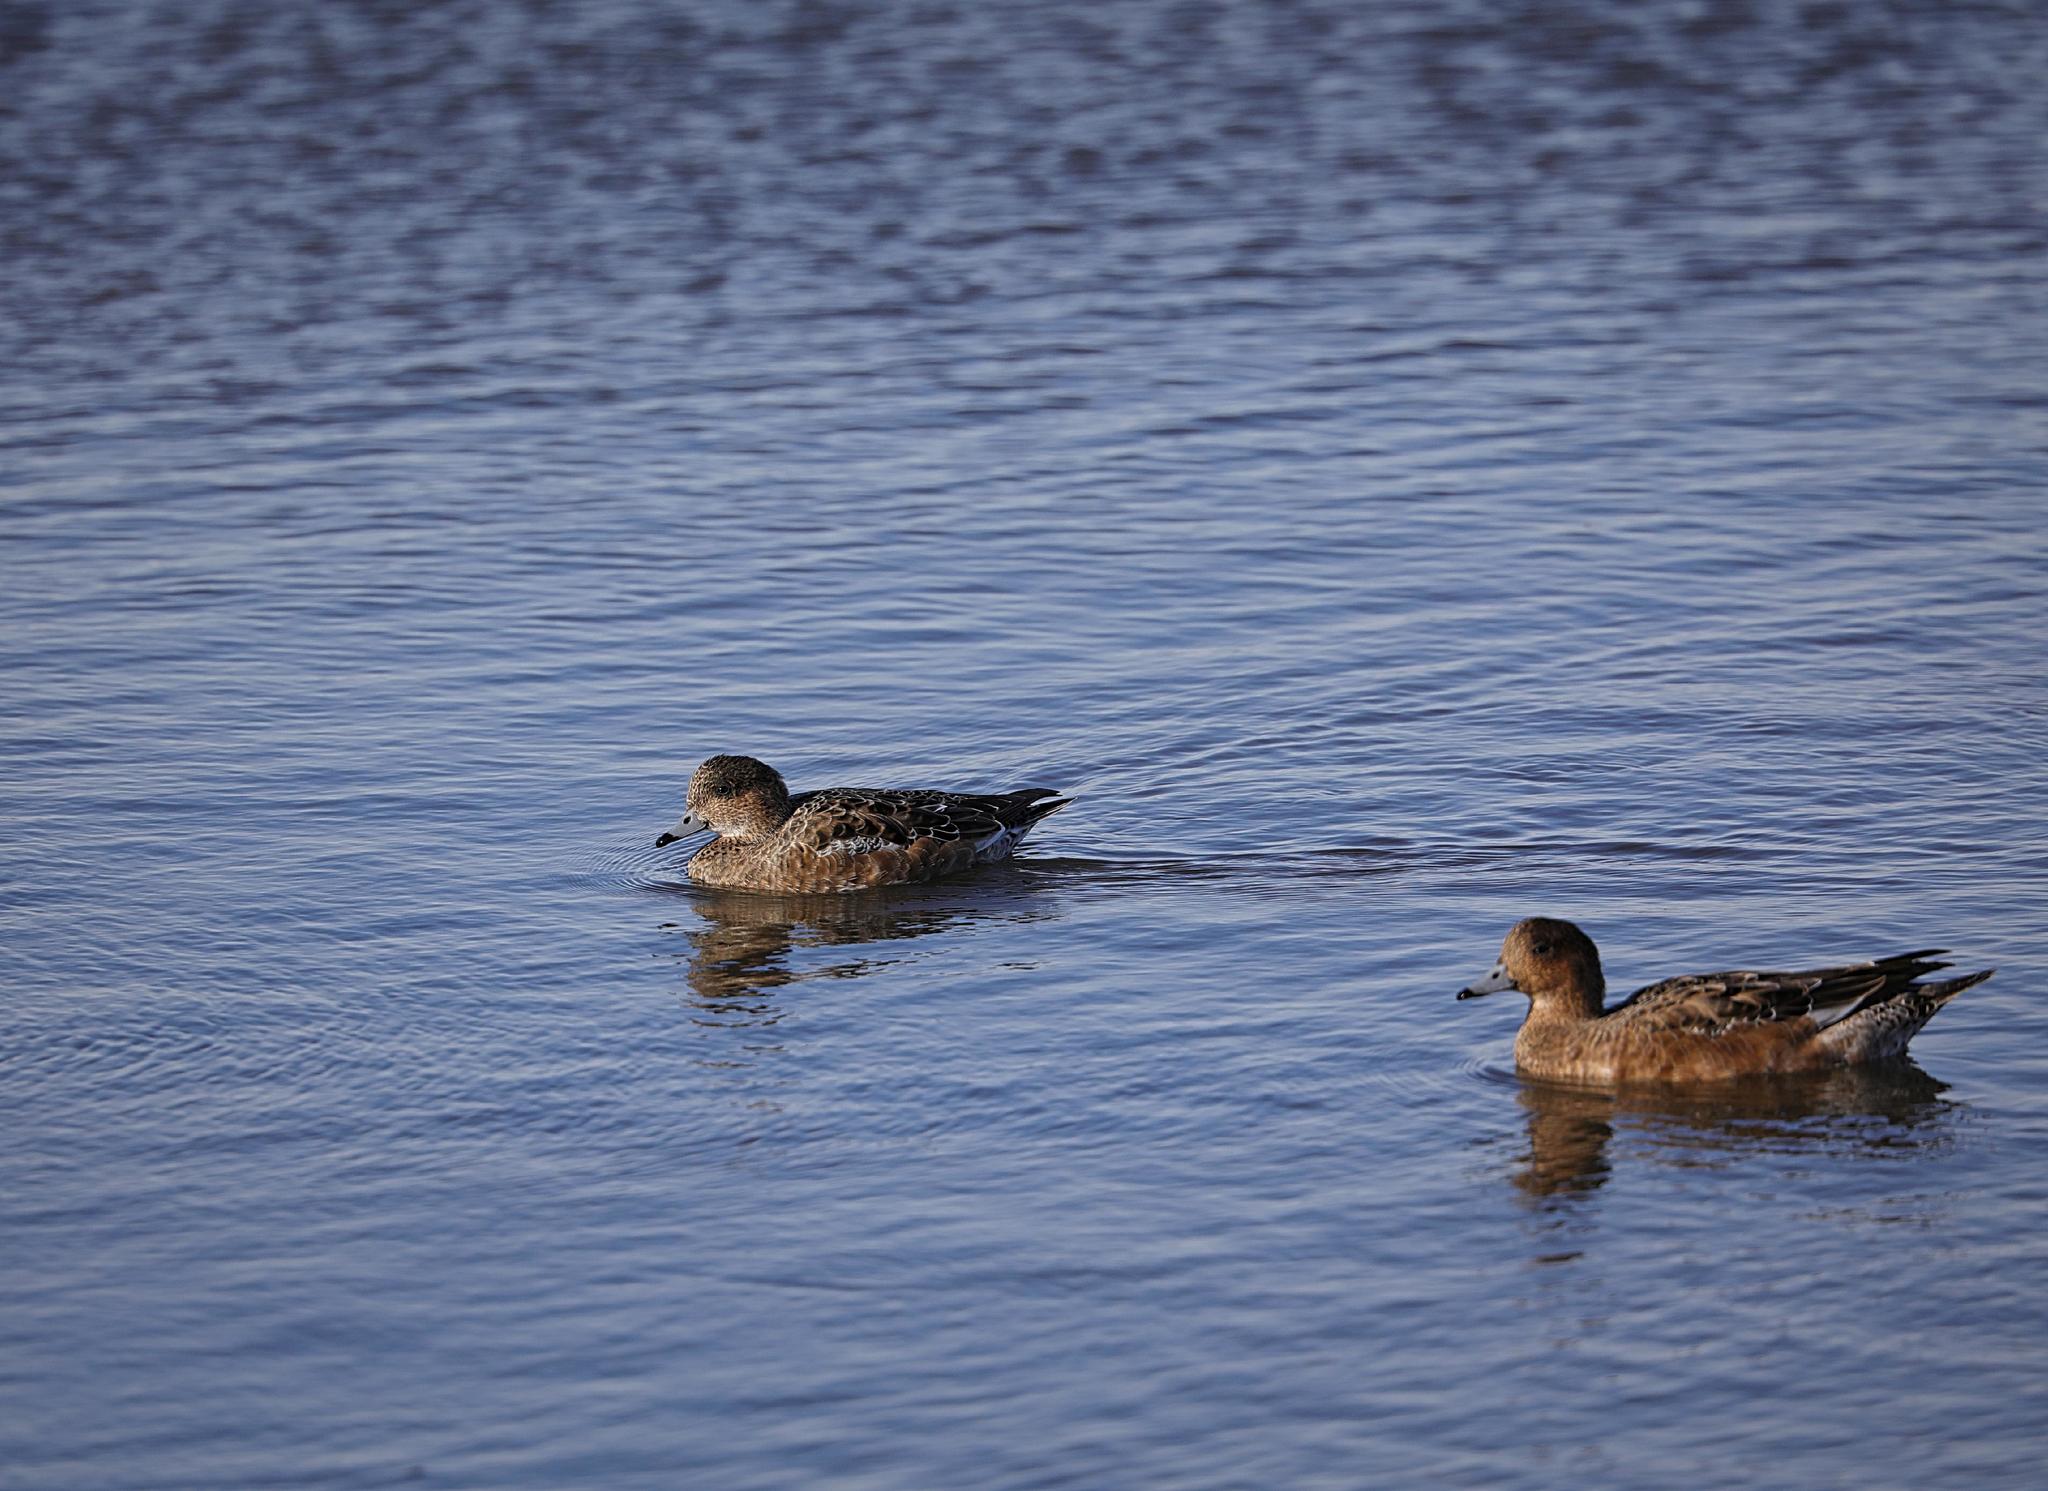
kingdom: Animalia
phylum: Chordata
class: Aves
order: Anseriformes
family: Anatidae
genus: Mareca
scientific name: Mareca penelope
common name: Eurasian wigeon
